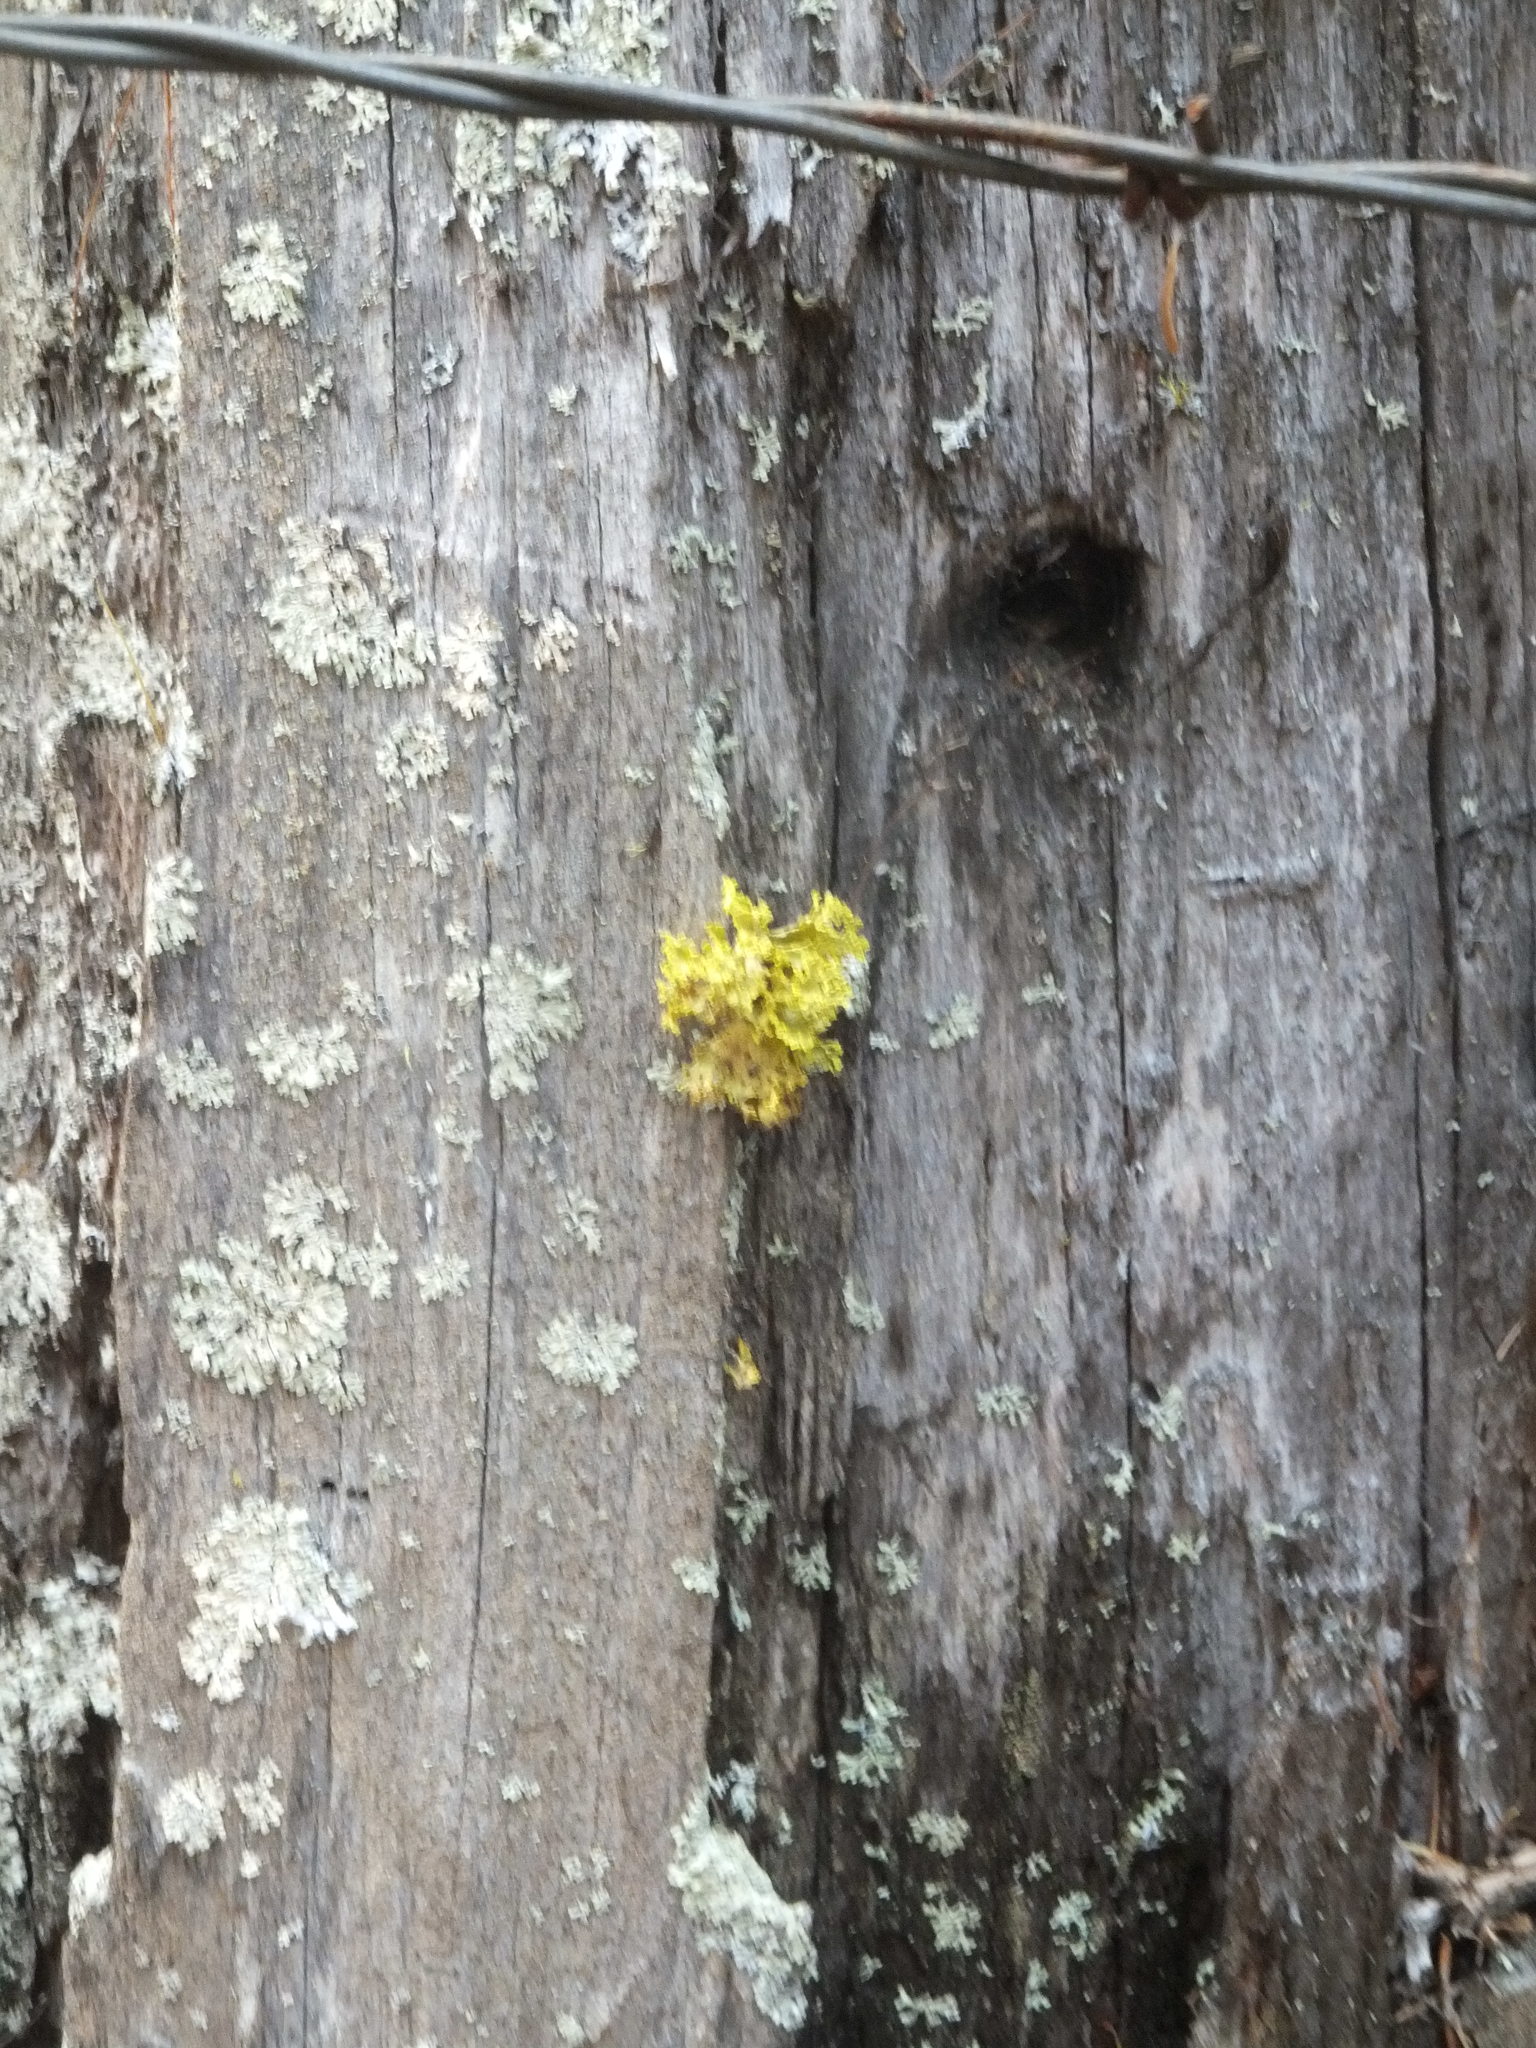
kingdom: Fungi
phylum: Ascomycota
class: Lecanoromycetes
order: Lecanorales
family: Parmeliaceae
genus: Vulpicida
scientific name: Vulpicida canadensis
